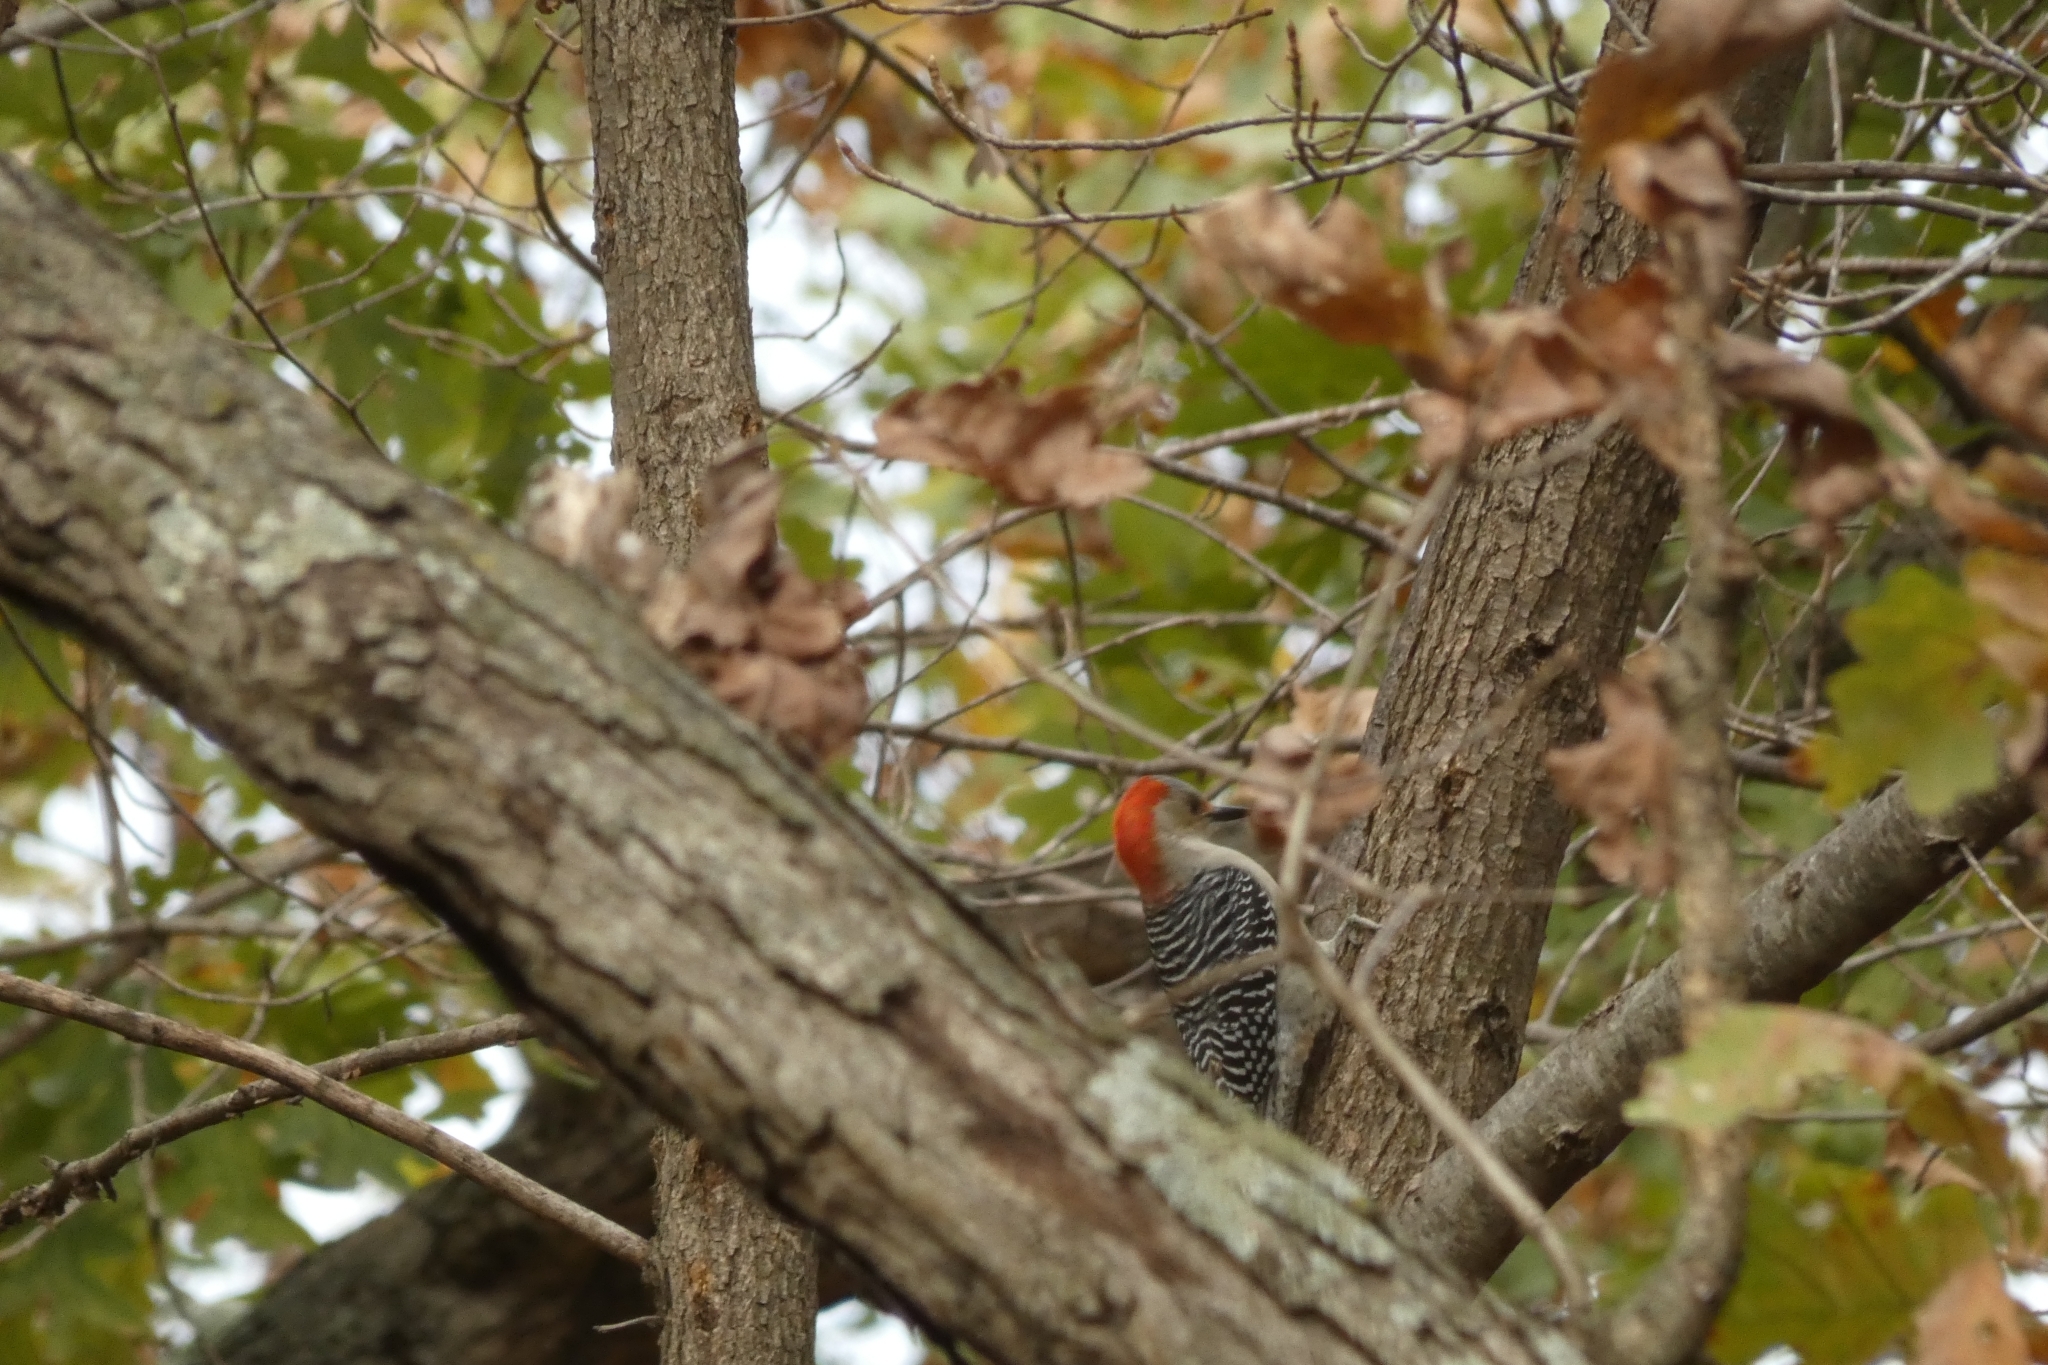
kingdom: Animalia
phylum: Chordata
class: Aves
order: Piciformes
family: Picidae
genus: Melanerpes
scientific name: Melanerpes carolinus
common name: Red-bellied woodpecker
